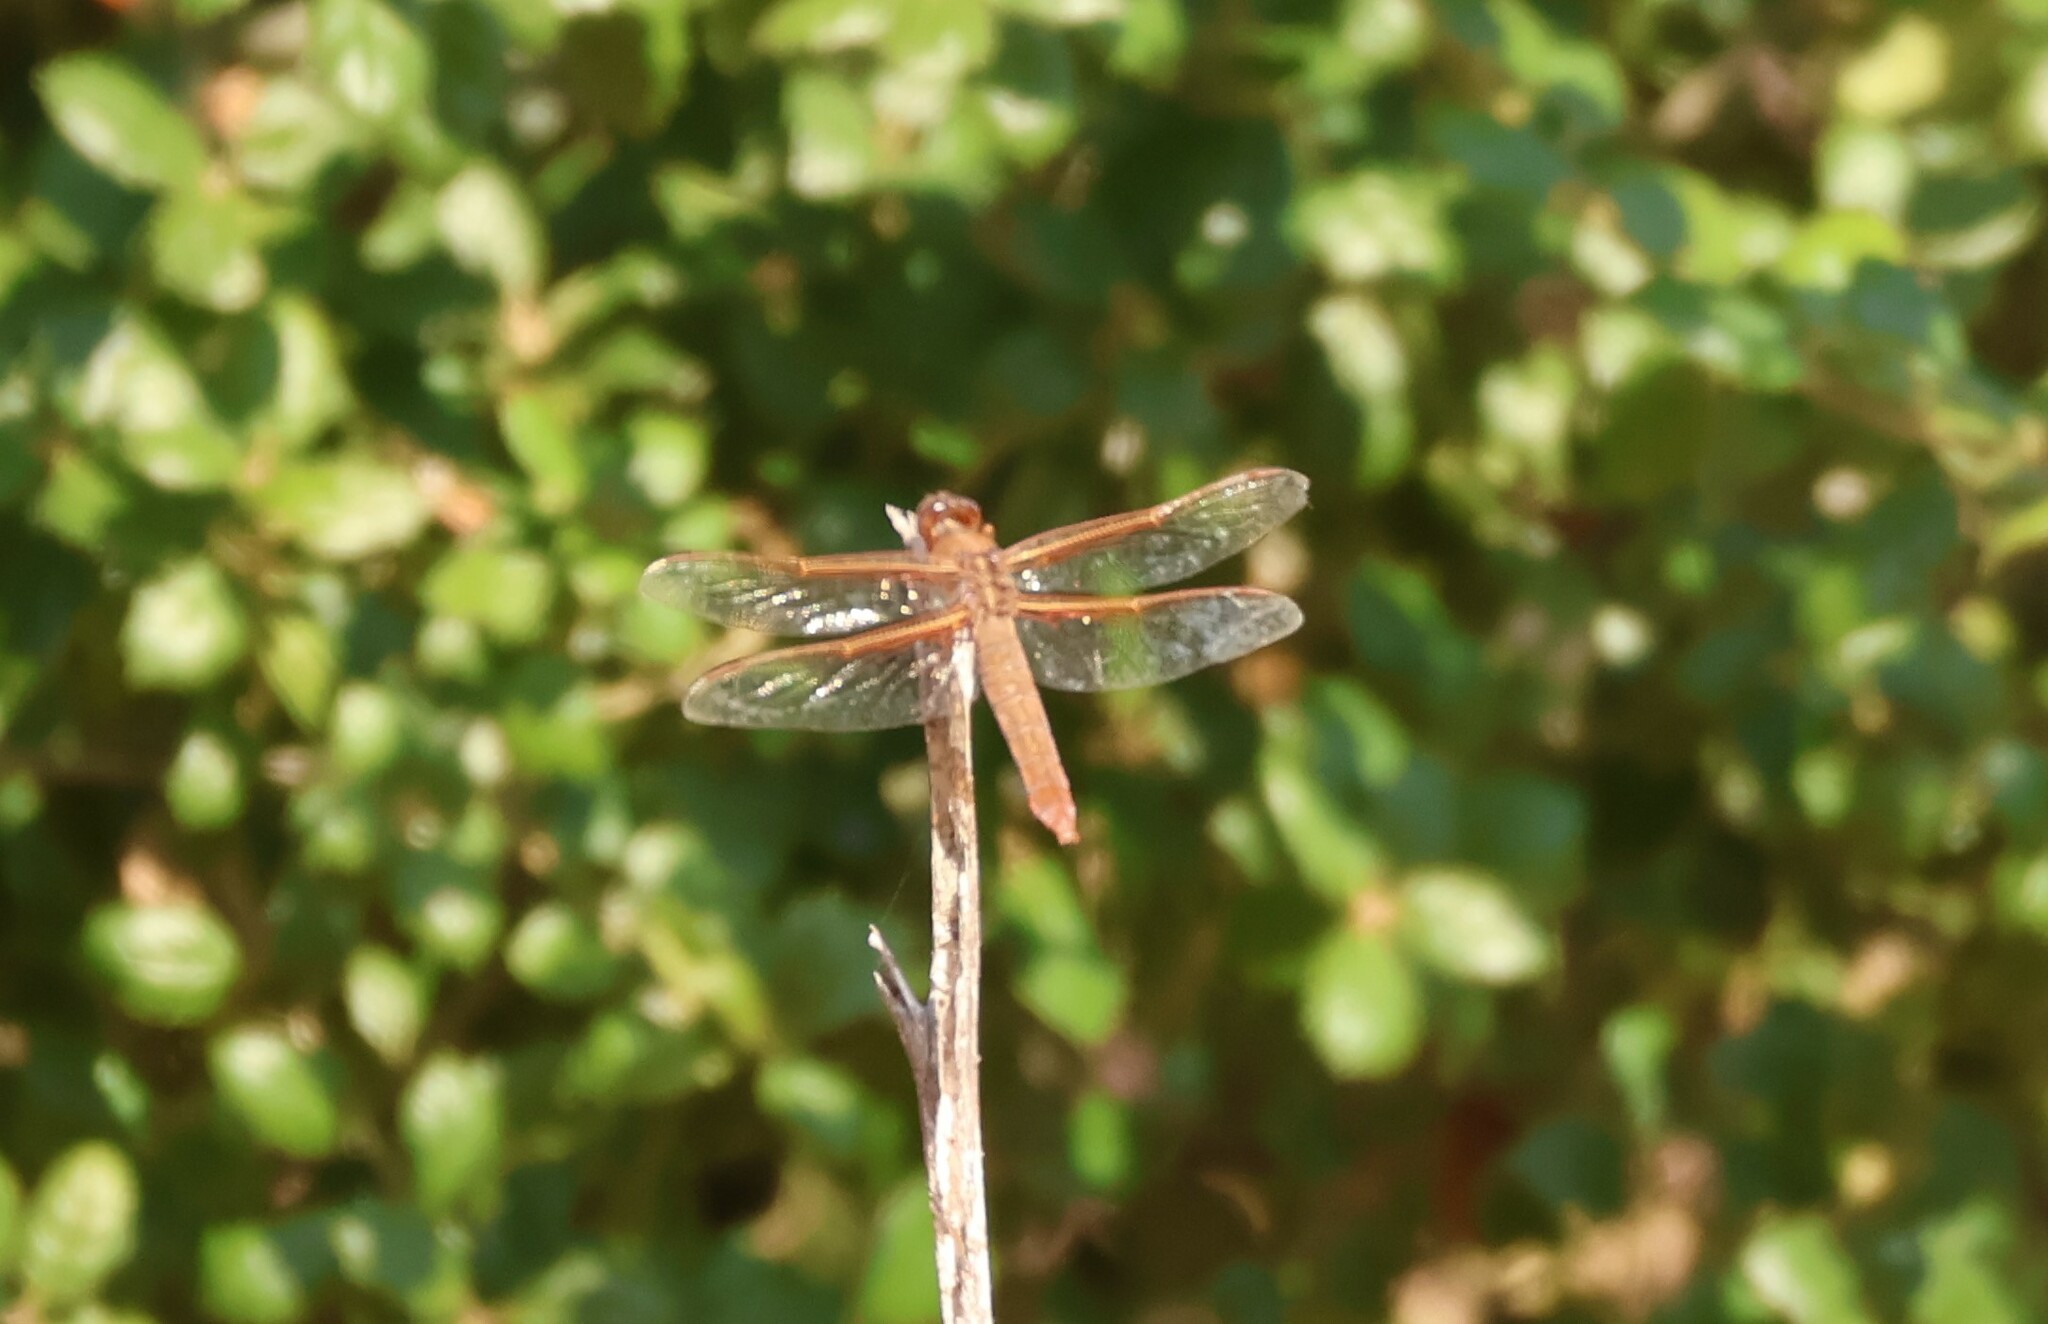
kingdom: Animalia
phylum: Arthropoda
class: Insecta
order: Odonata
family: Libellulidae
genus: Libellula
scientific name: Libellula saturata
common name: Flame skimmer
